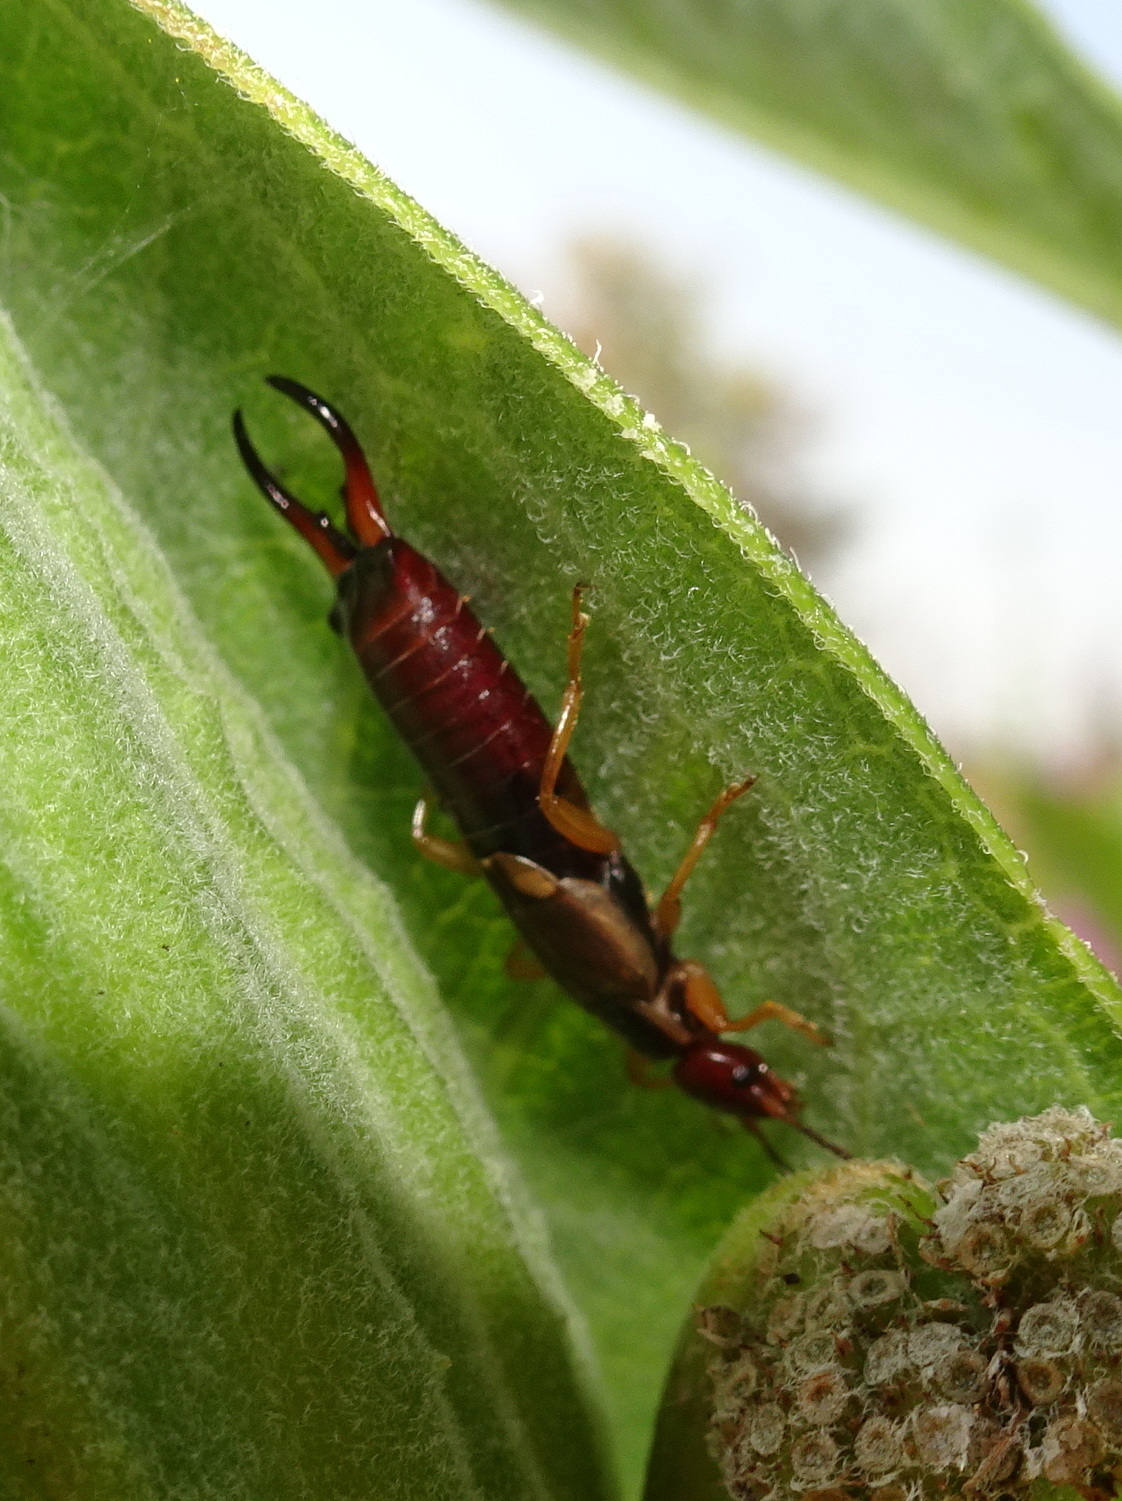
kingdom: Animalia
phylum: Arthropoda
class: Insecta
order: Dermaptera
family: Forficulidae
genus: Forficula
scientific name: Forficula
